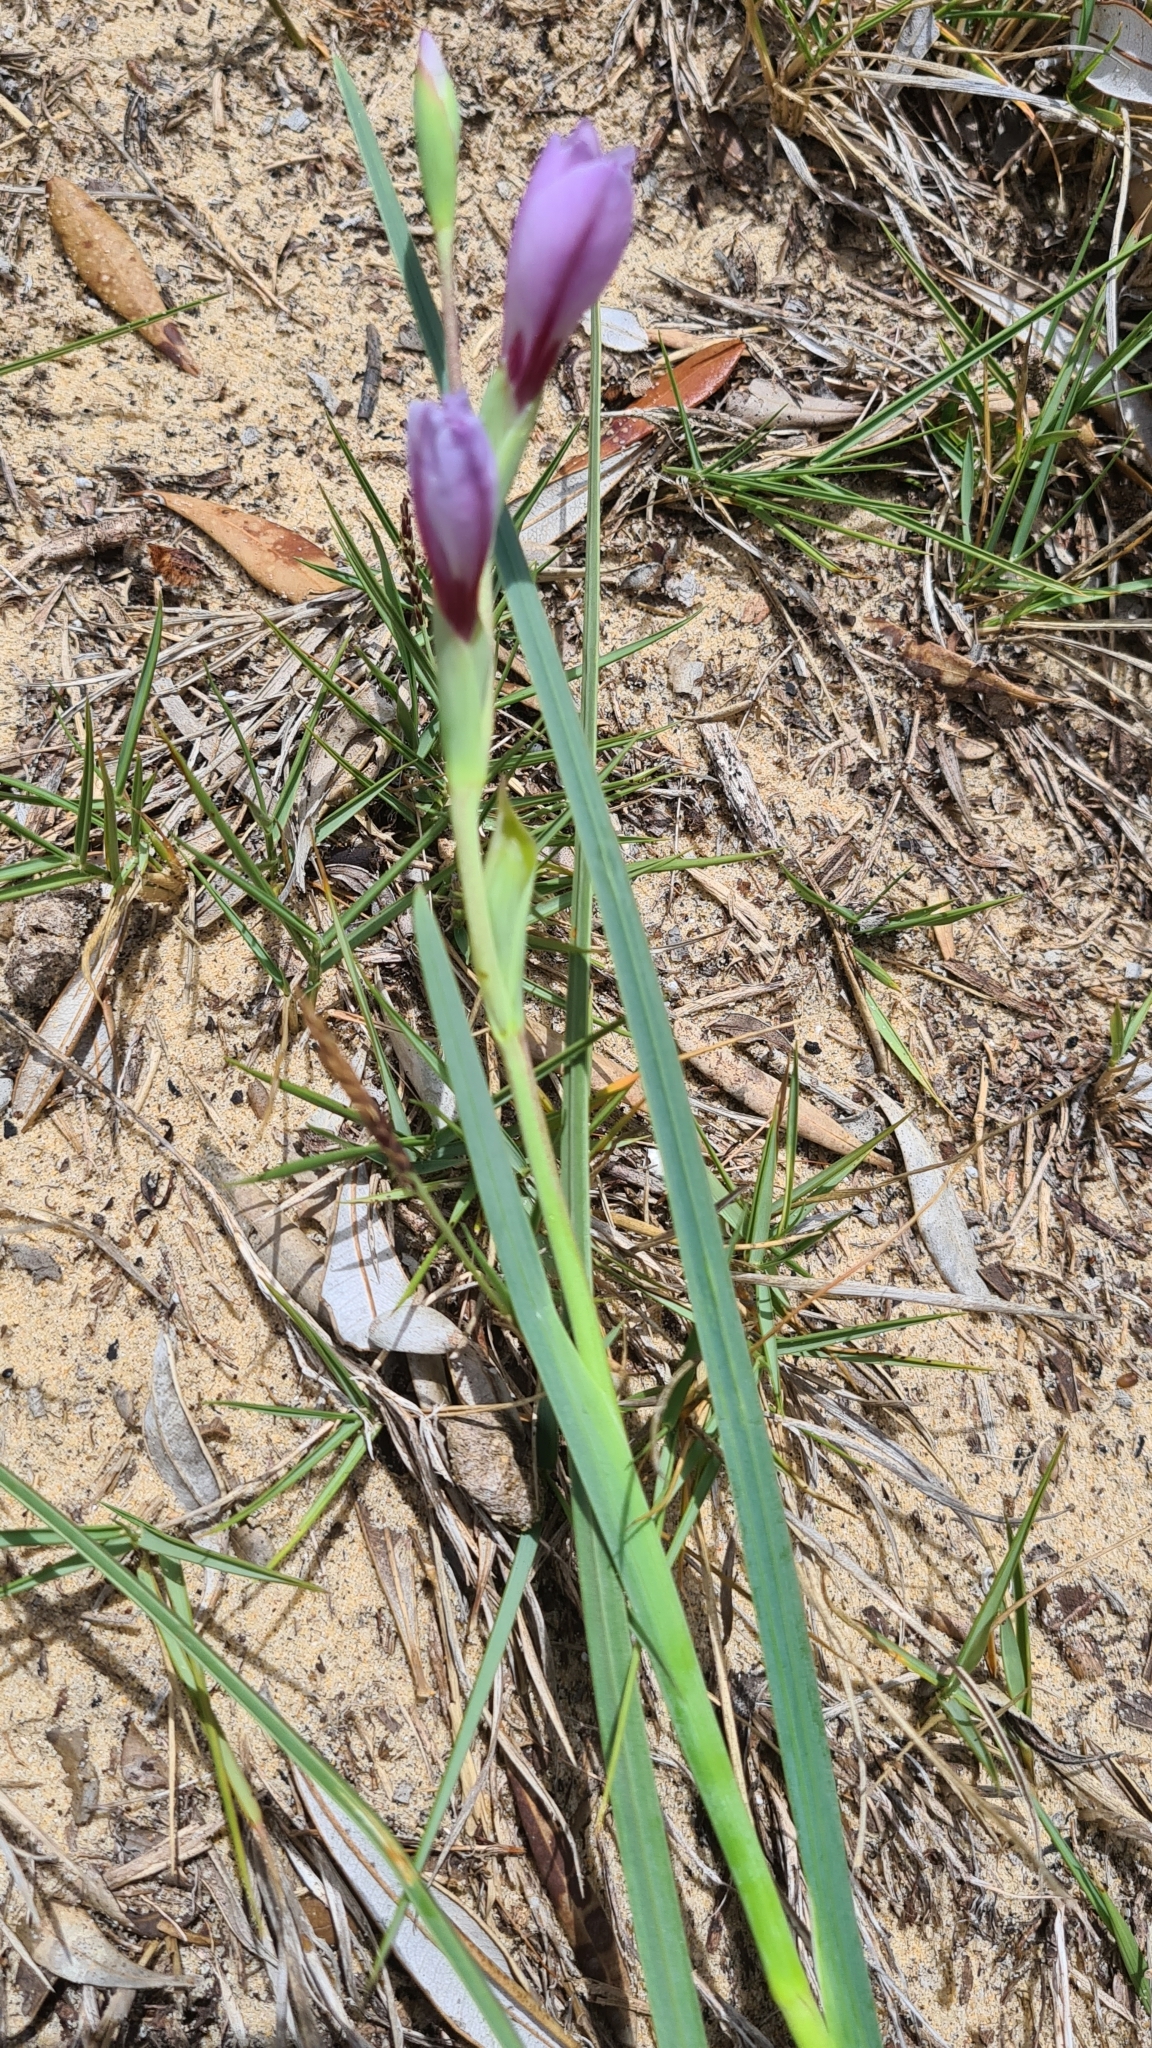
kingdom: Plantae
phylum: Tracheophyta
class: Liliopsida
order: Asparagales
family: Iridaceae
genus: Gladiolus
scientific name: Gladiolus gueinzii
